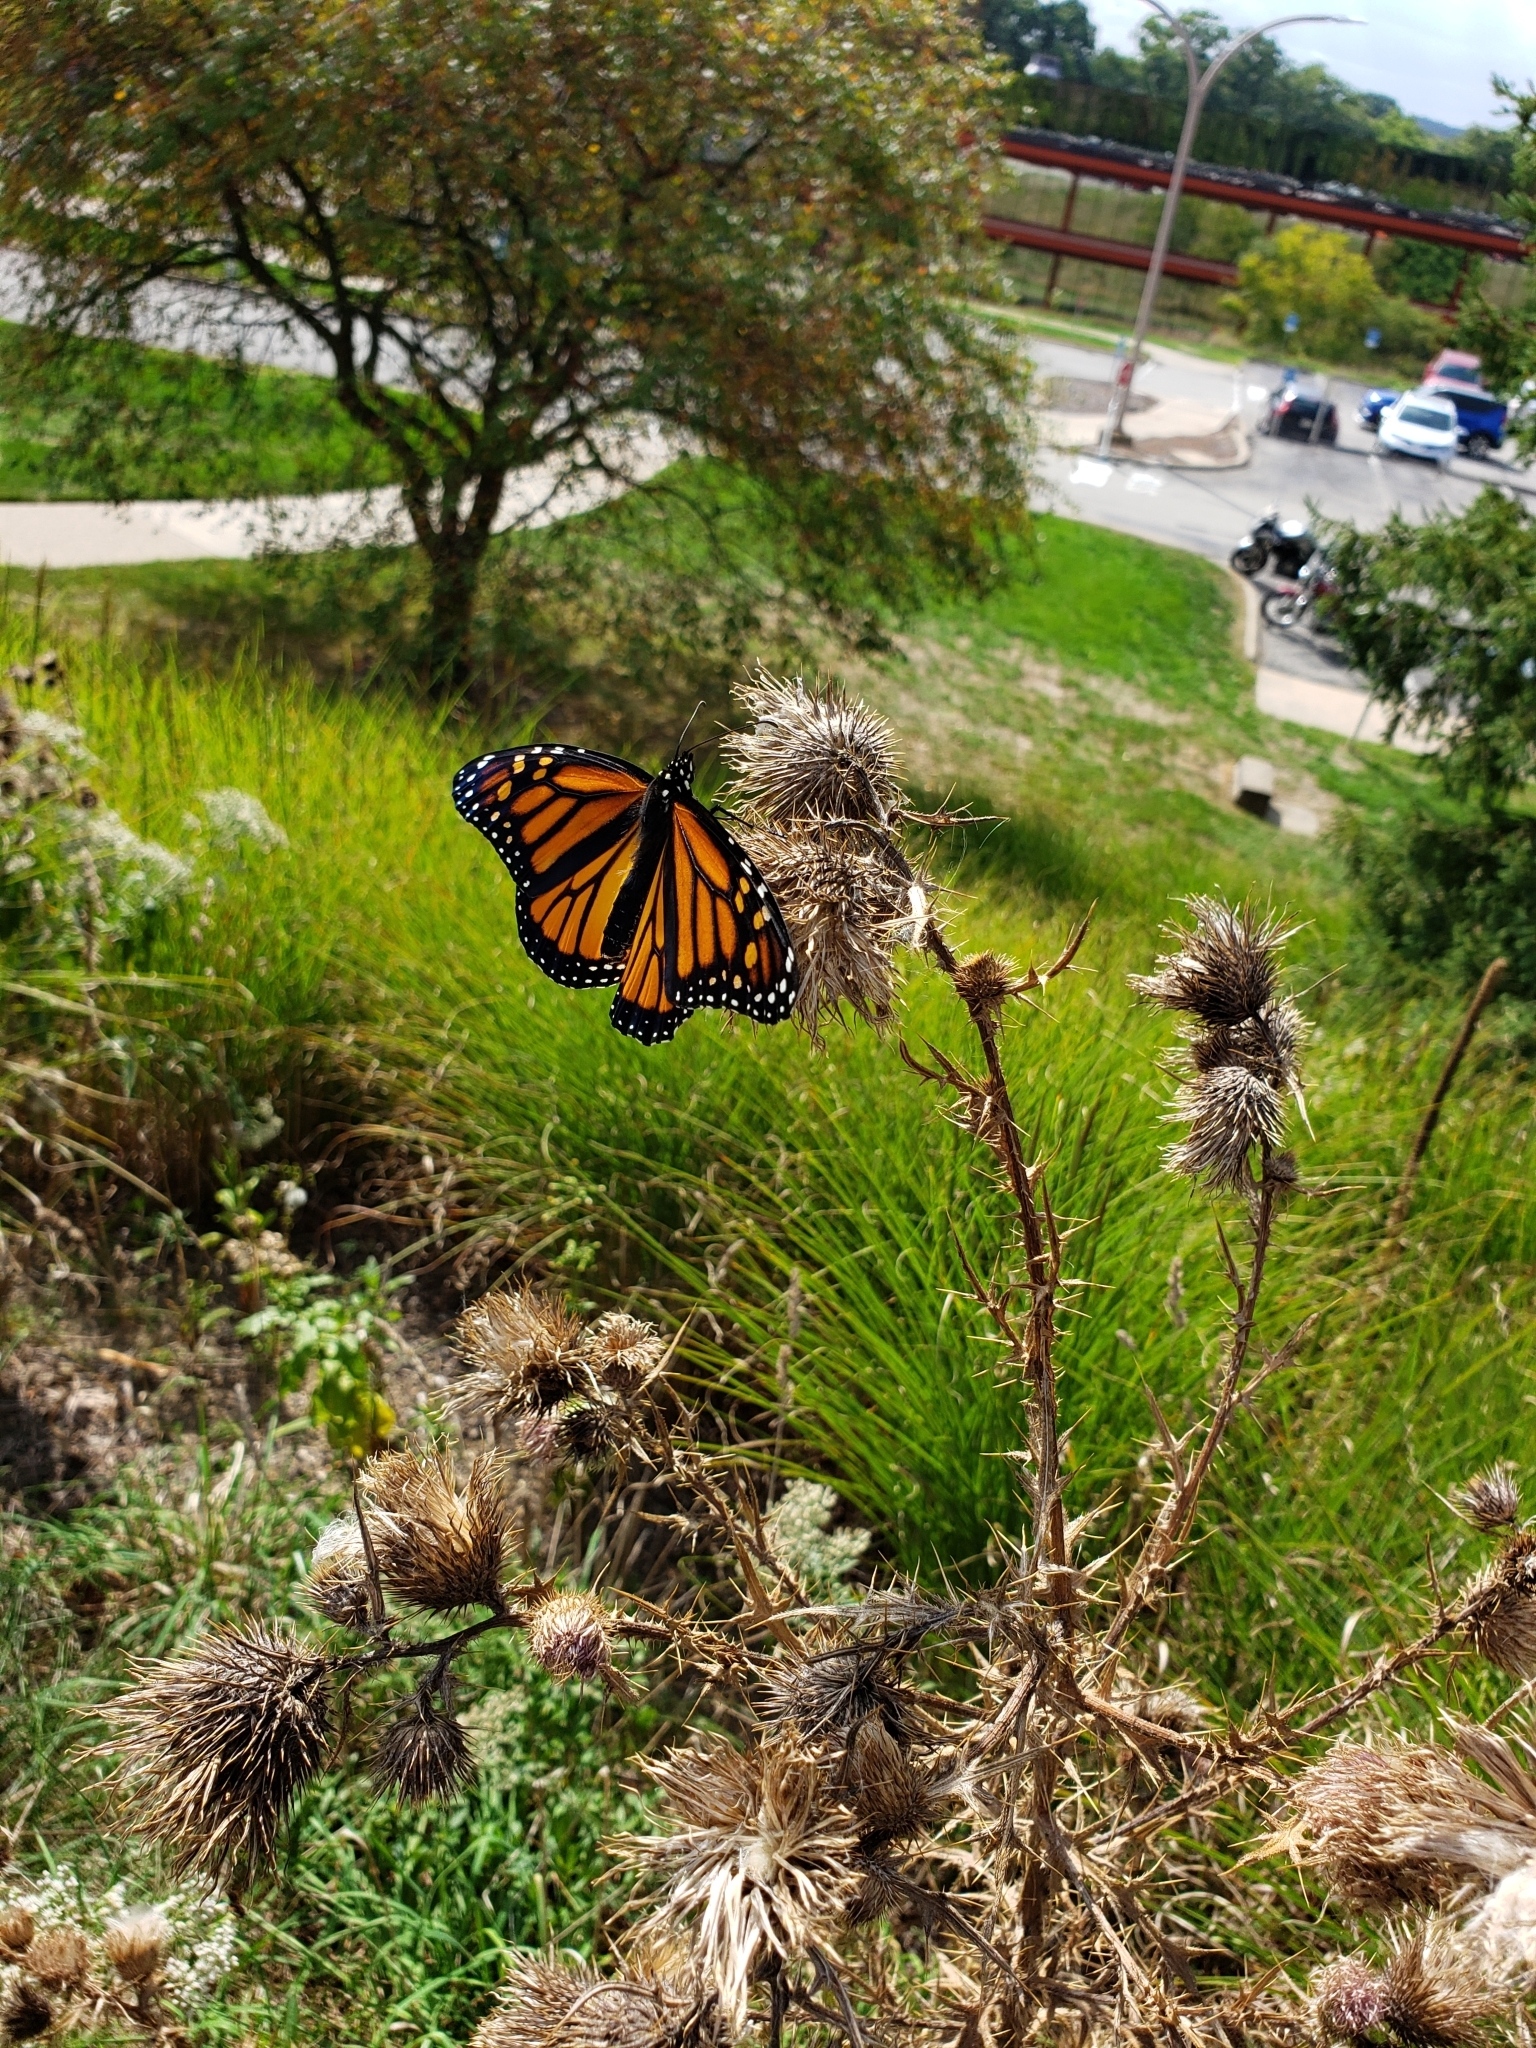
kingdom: Animalia
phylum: Arthropoda
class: Insecta
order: Lepidoptera
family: Nymphalidae
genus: Danaus
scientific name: Danaus plexippus
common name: Monarch
